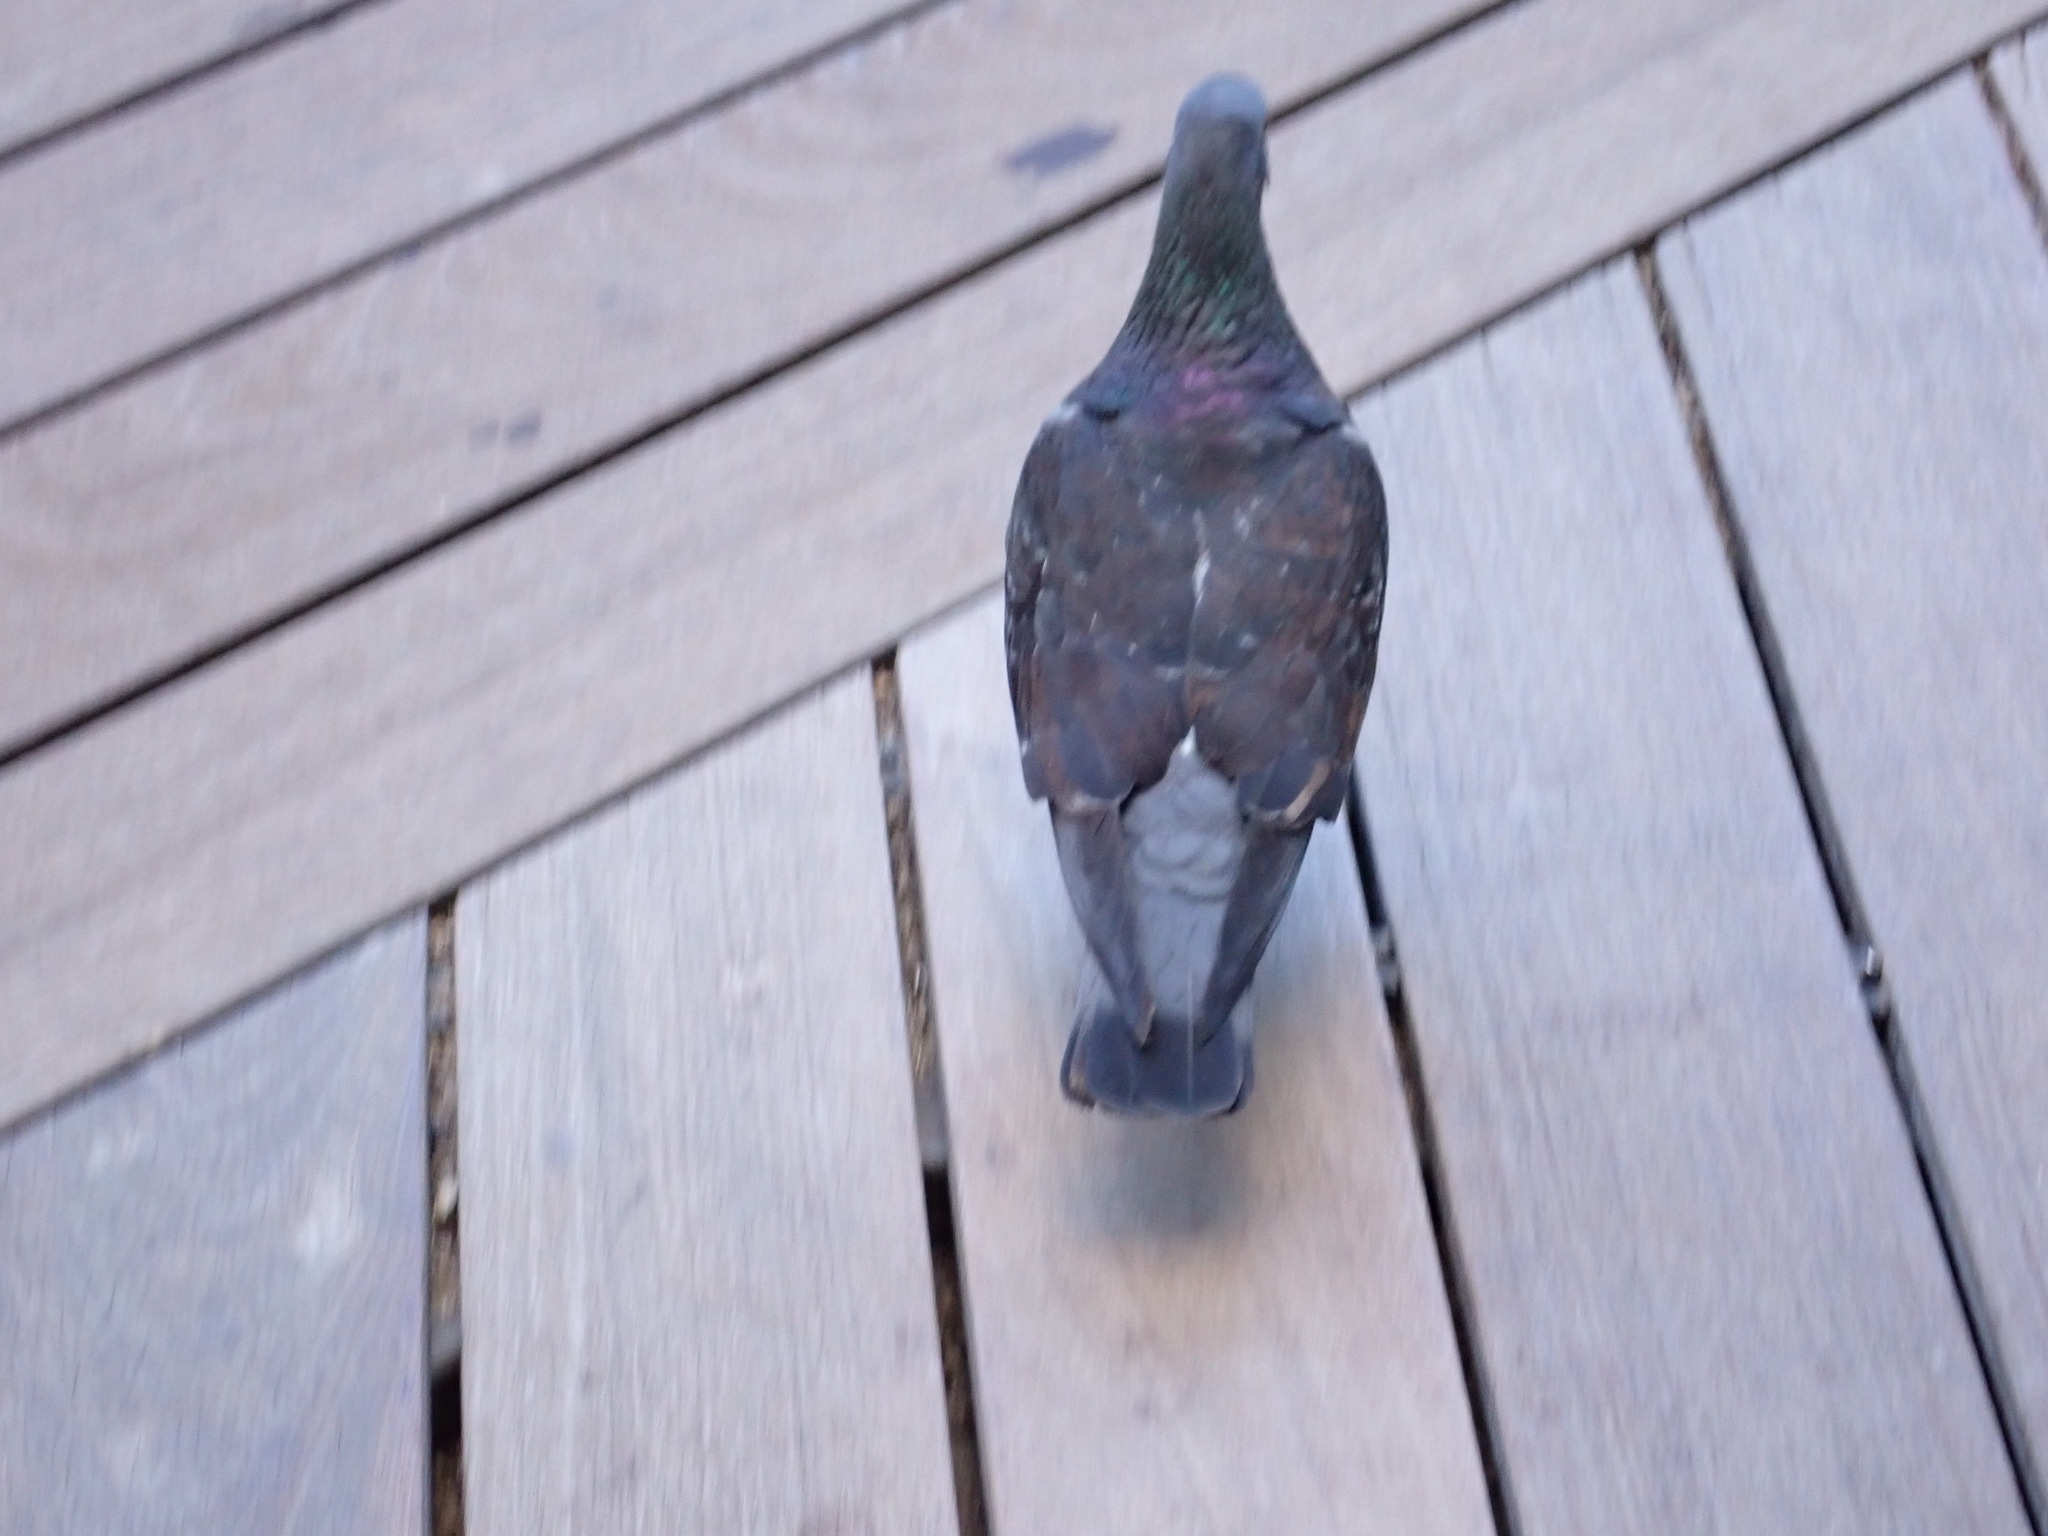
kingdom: Animalia
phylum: Chordata
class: Aves
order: Columbiformes
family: Columbidae
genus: Columba
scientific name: Columba livia
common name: Rock pigeon
